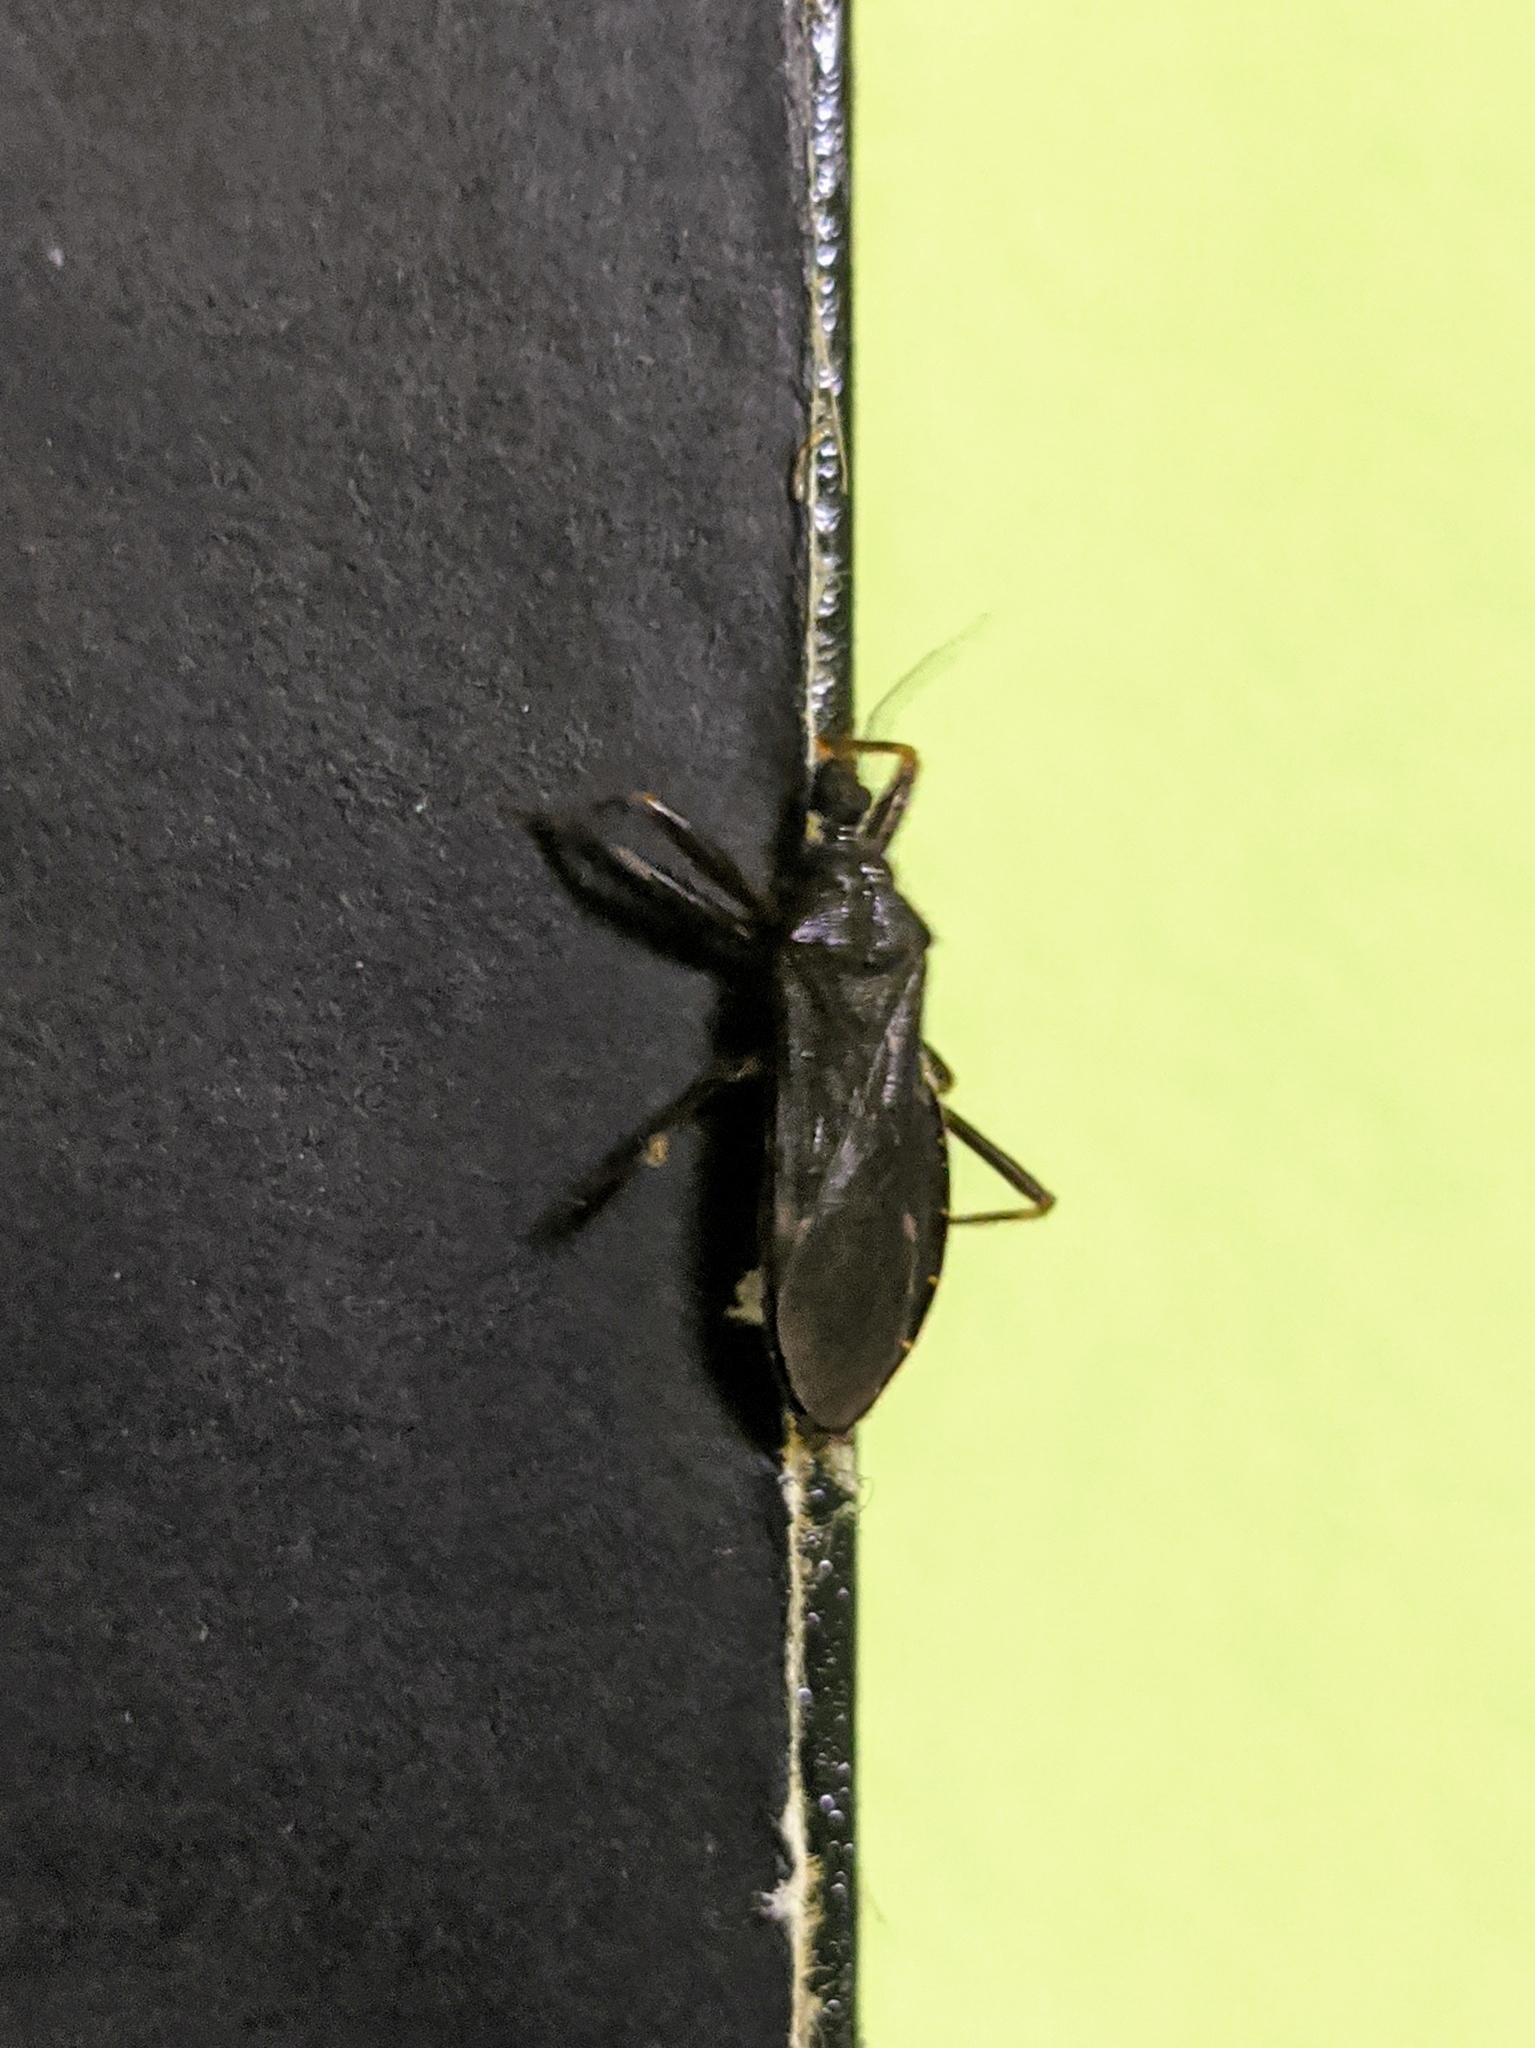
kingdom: Animalia
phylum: Arthropoda
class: Insecta
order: Hemiptera
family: Reduviidae
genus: Reduvius
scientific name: Reduvius personatus
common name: Masked hunter
